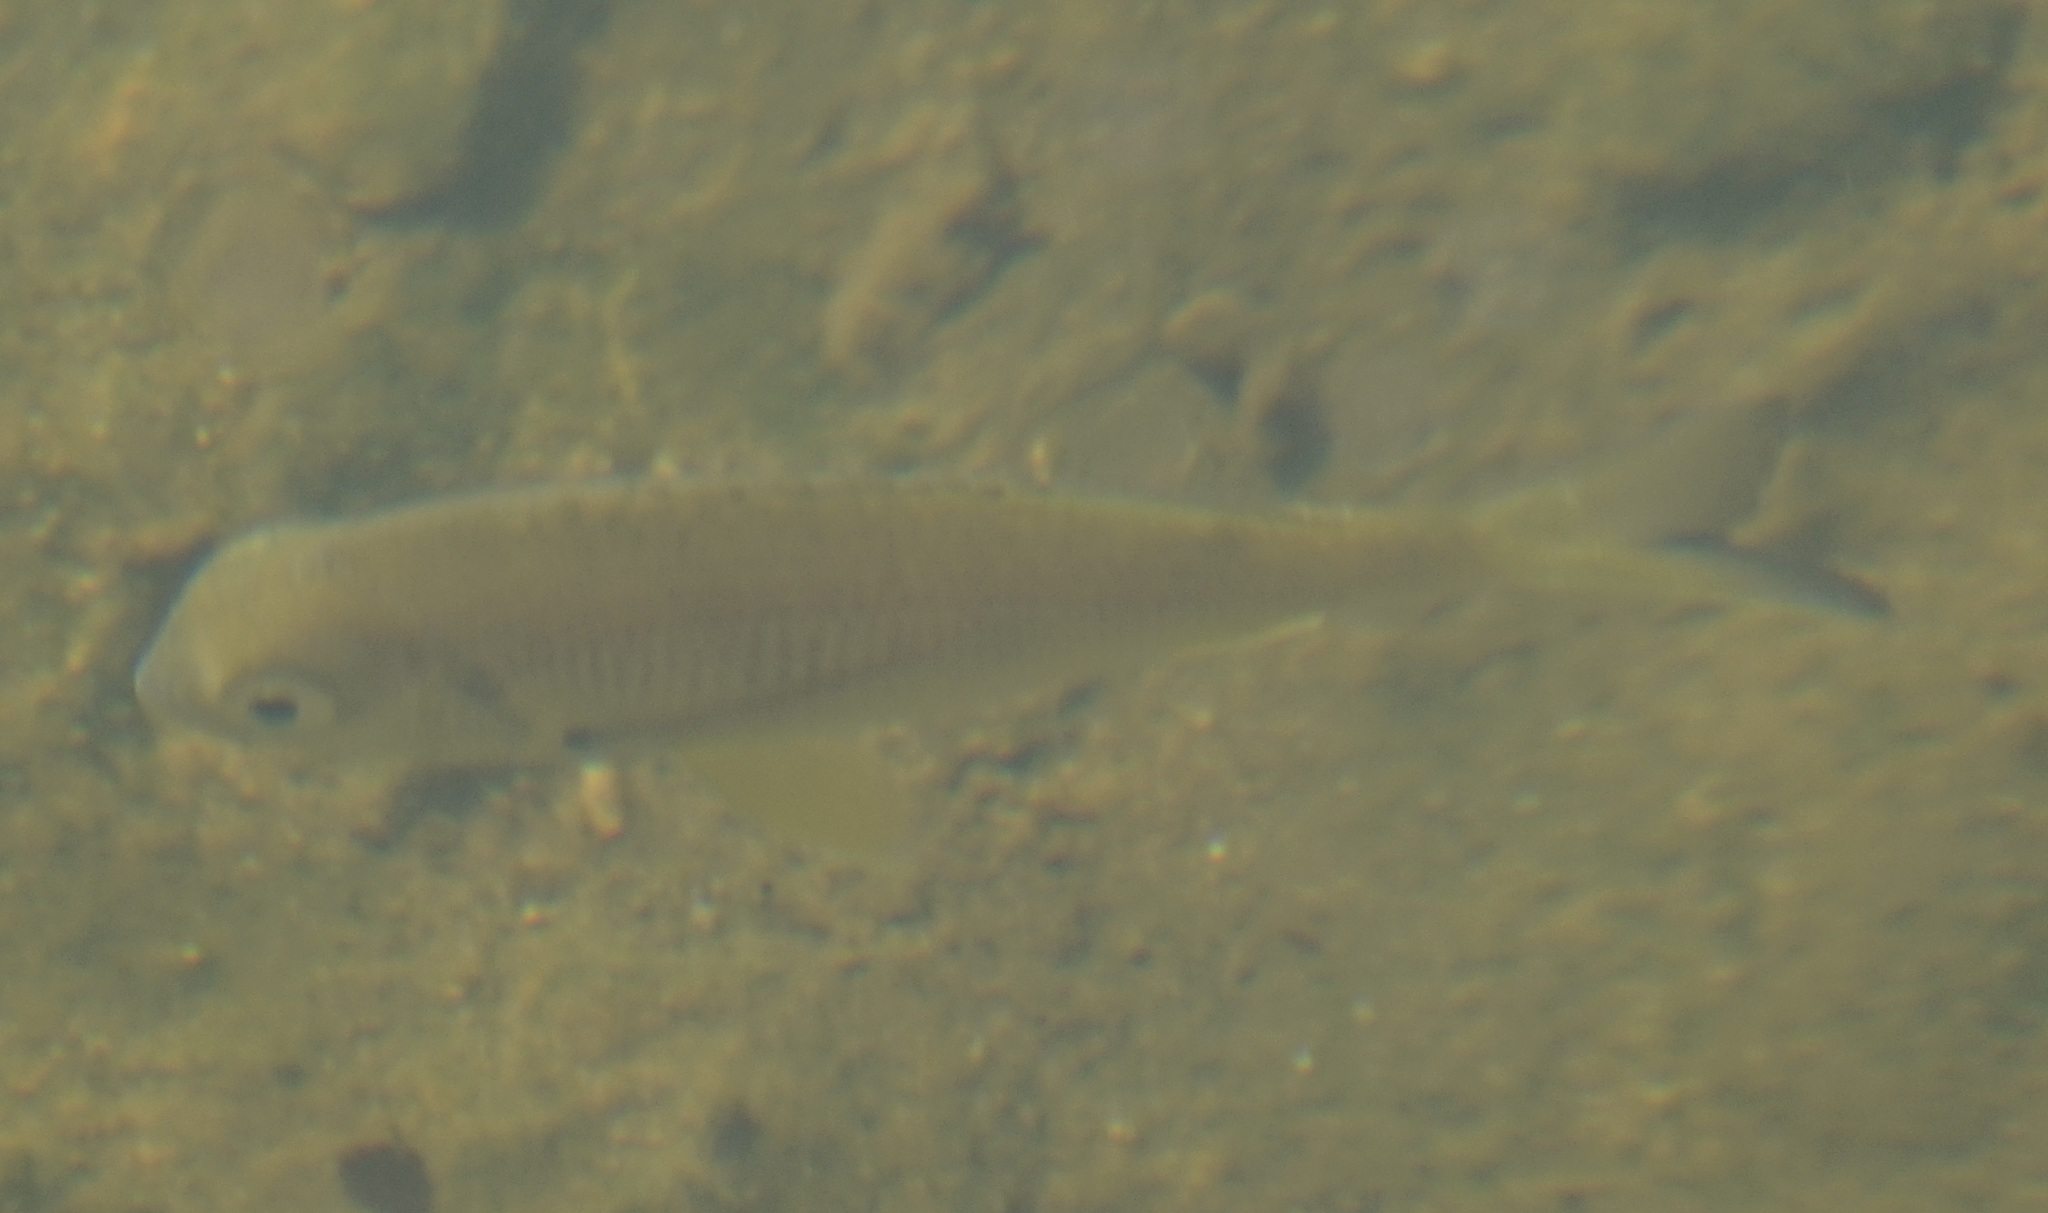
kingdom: Animalia
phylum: Chordata
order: Perciformes
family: Sparidae
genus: Acanthopagrus
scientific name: Acanthopagrus australis
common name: Surf bream
